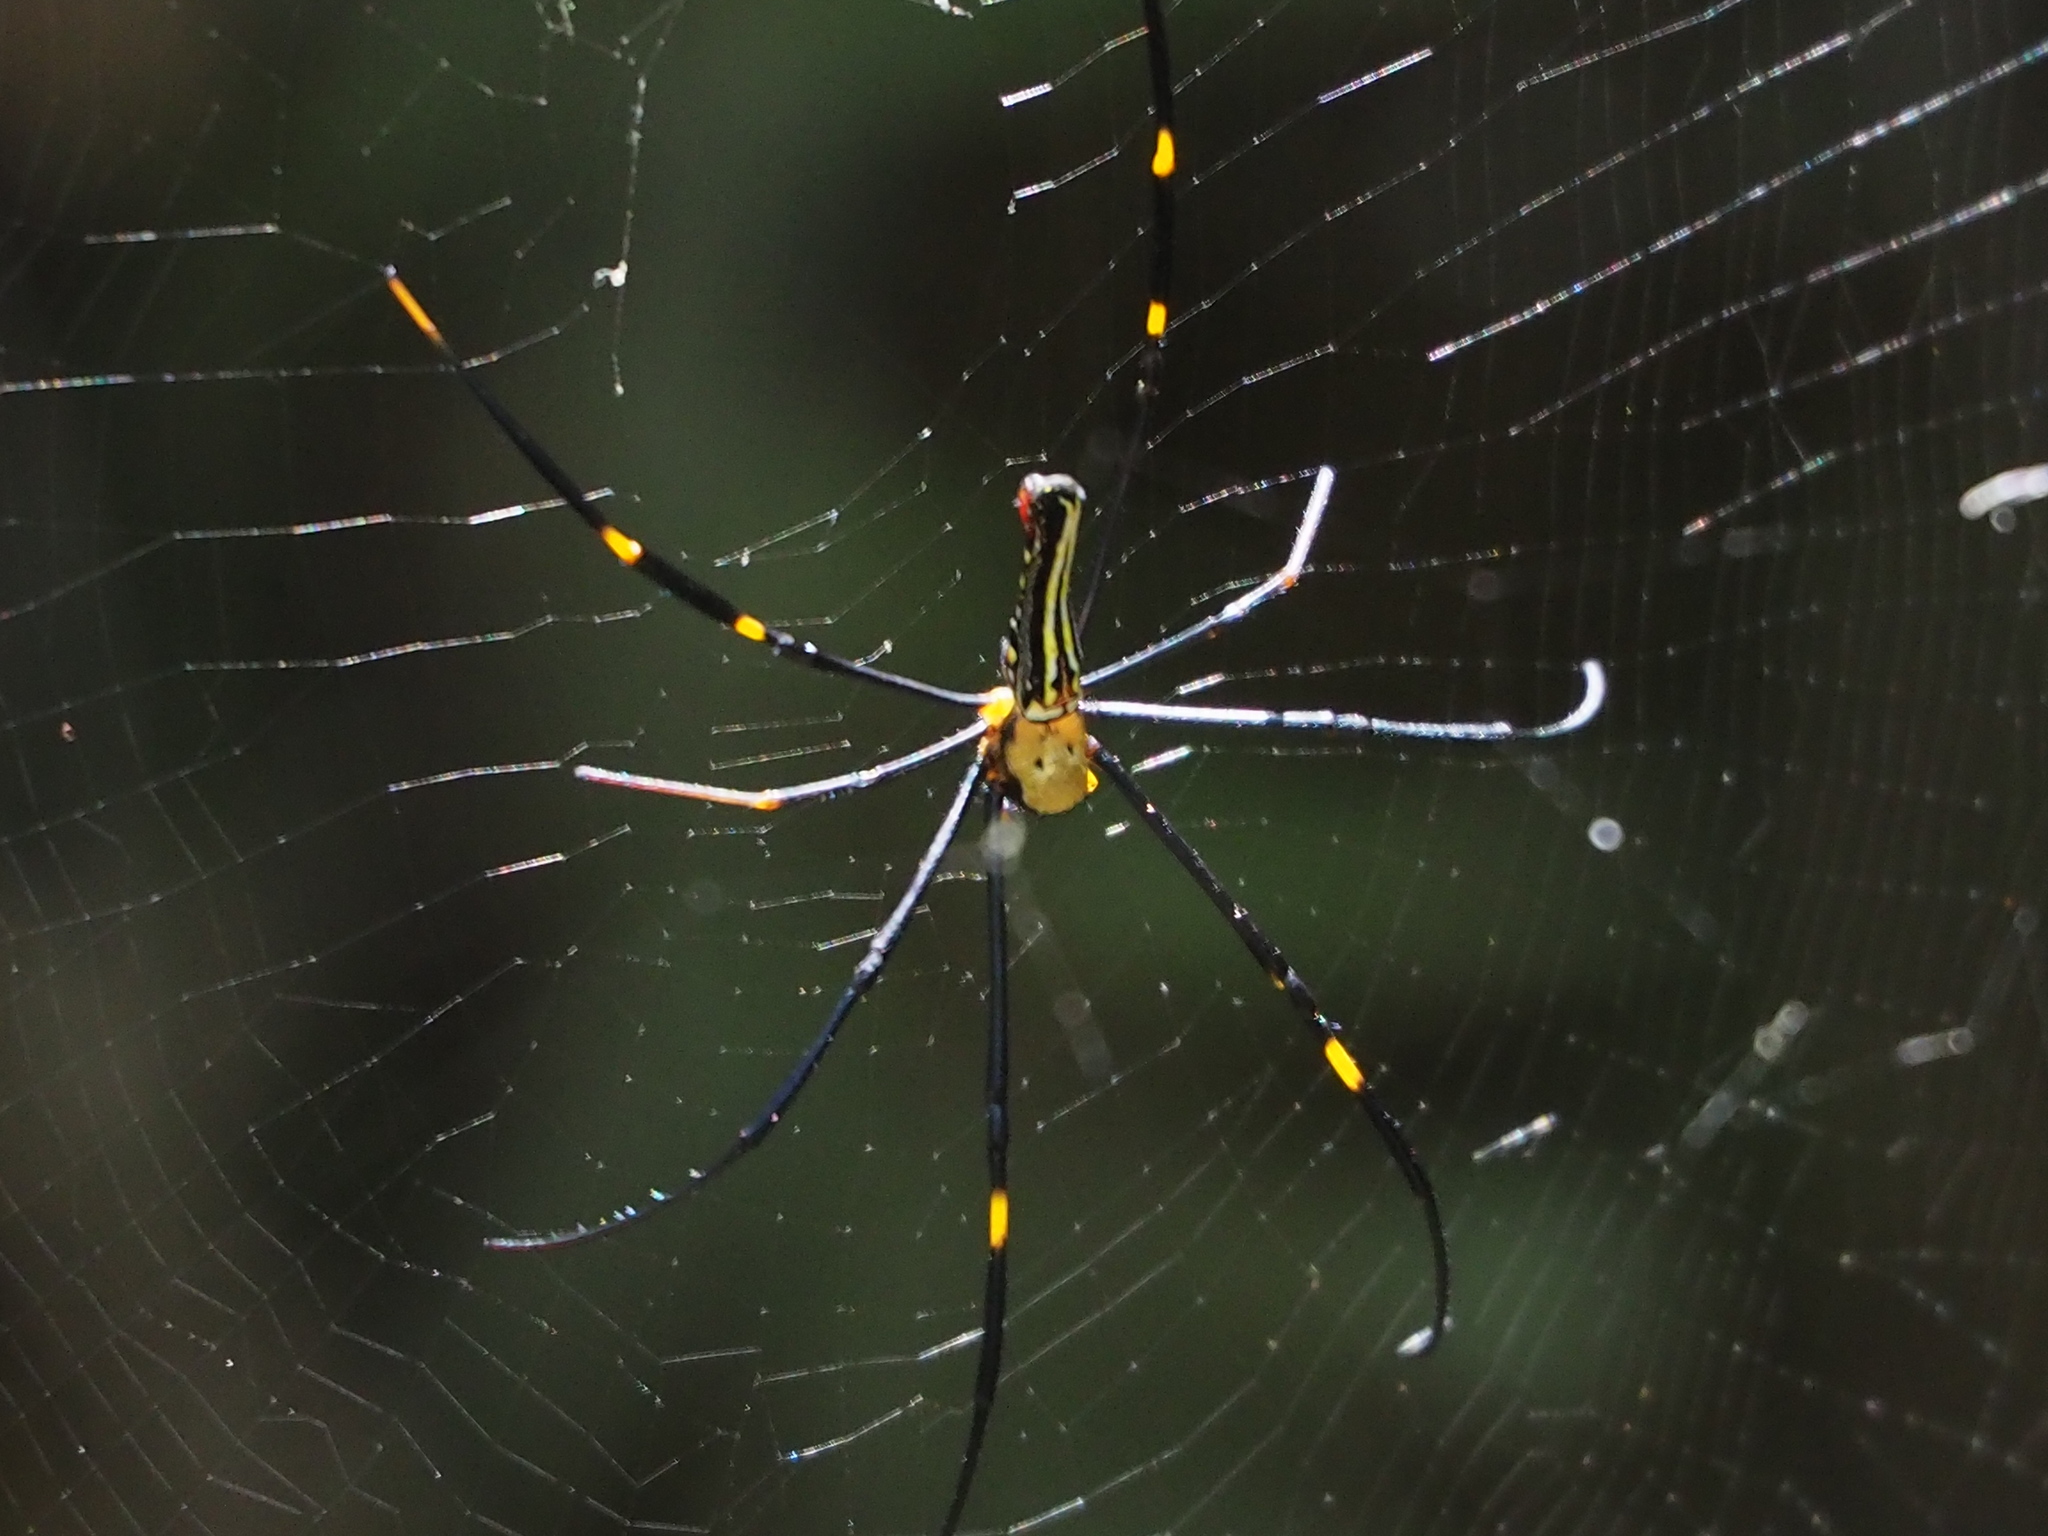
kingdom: Animalia
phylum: Arthropoda
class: Arachnida
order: Araneae
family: Araneidae
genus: Nephila
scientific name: Nephila pilipes
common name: Giant golden orb weaver
